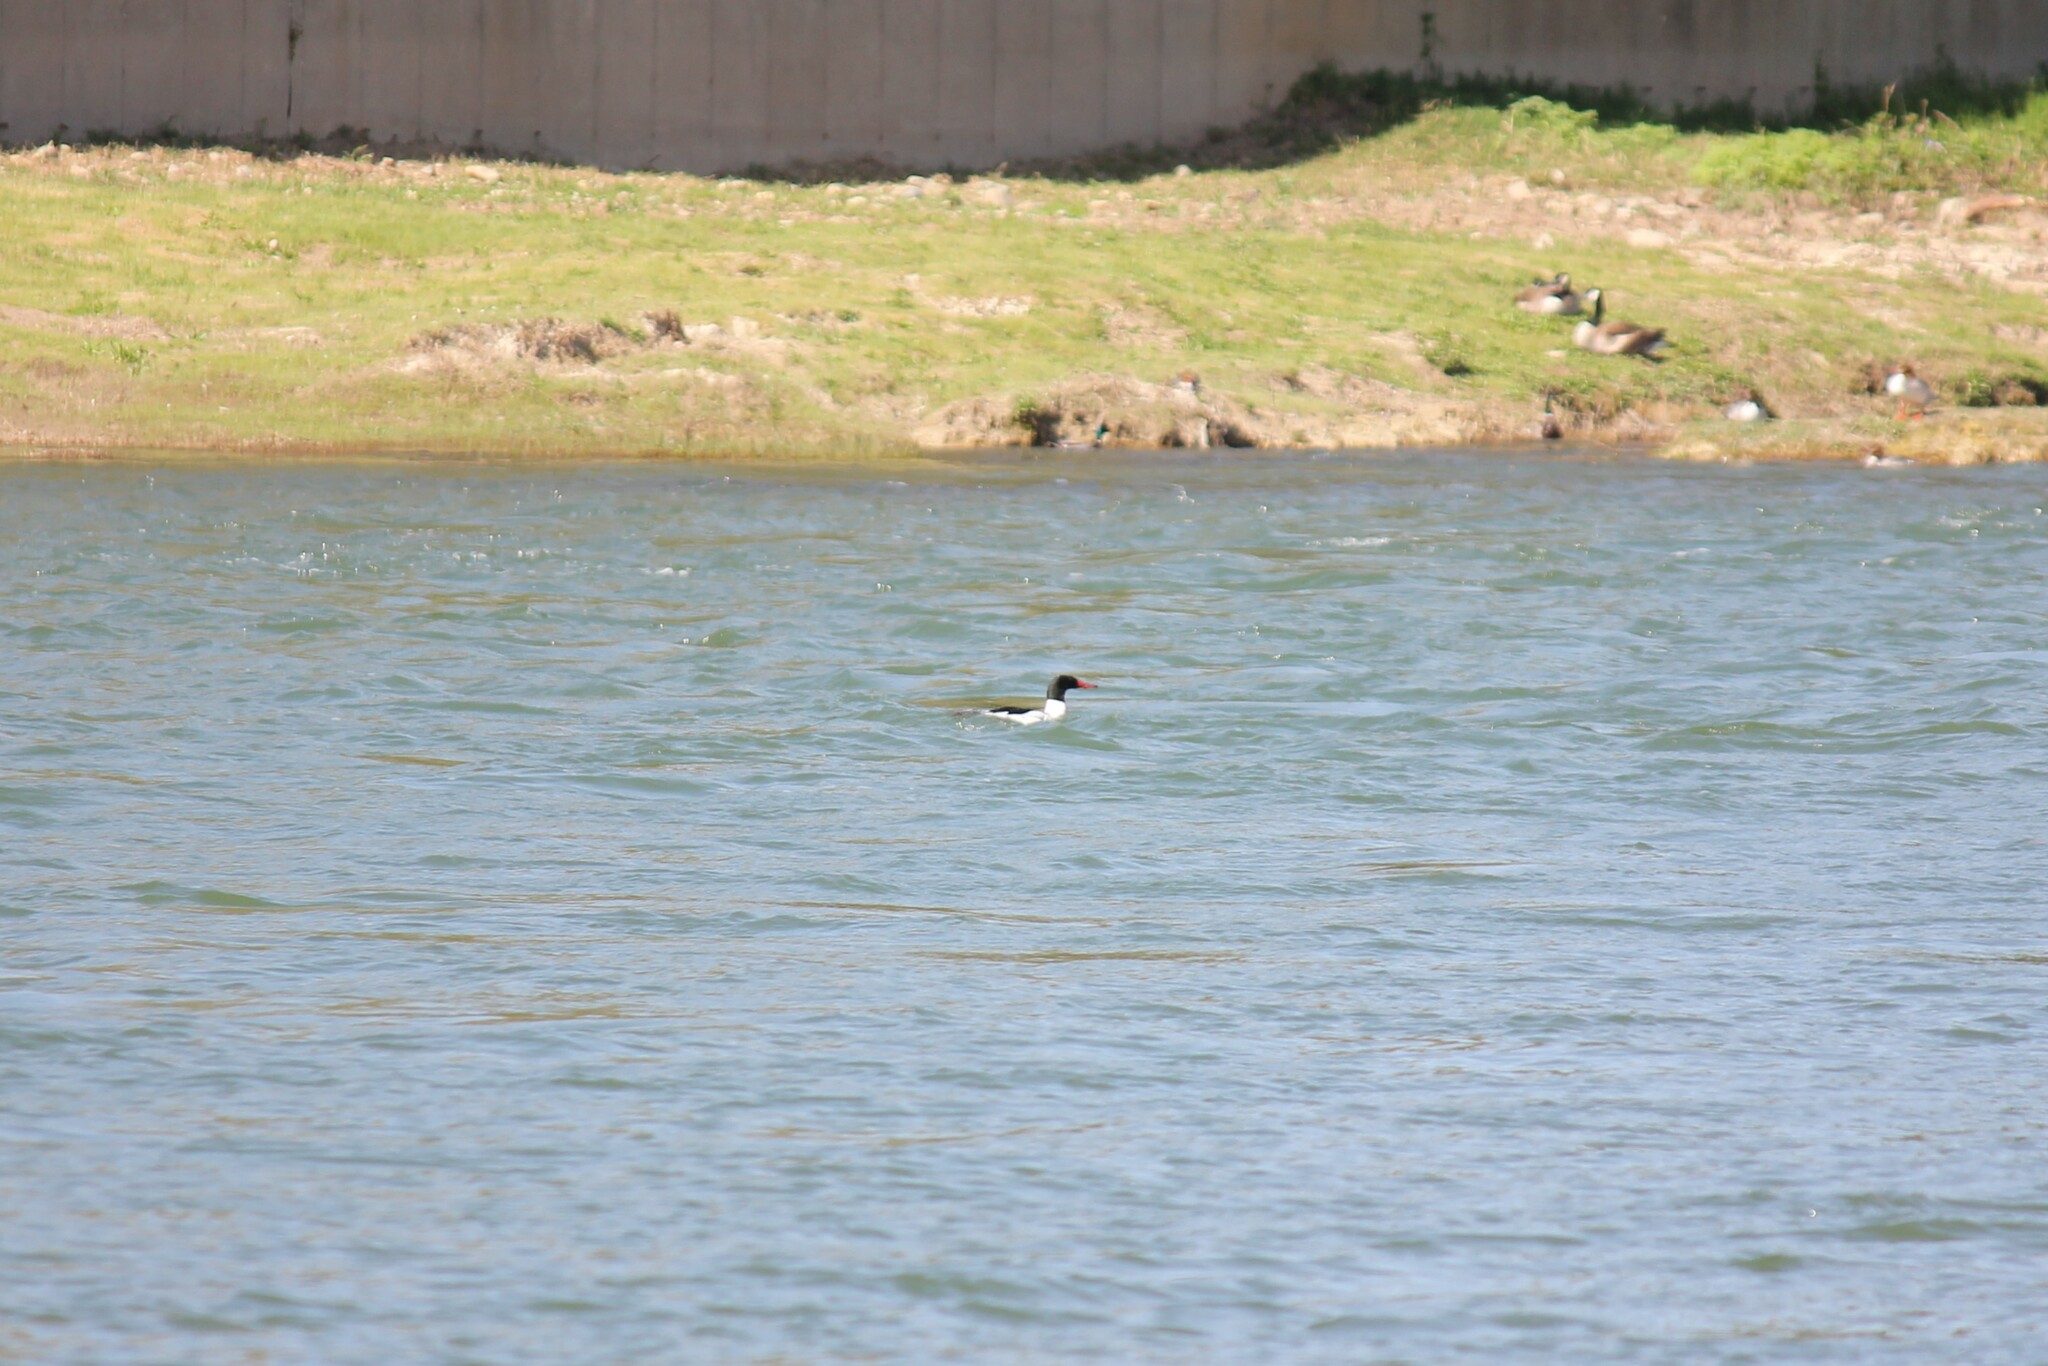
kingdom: Animalia
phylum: Chordata
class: Aves
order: Anseriformes
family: Anatidae
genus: Mergus
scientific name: Mergus merganser
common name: Common merganser
